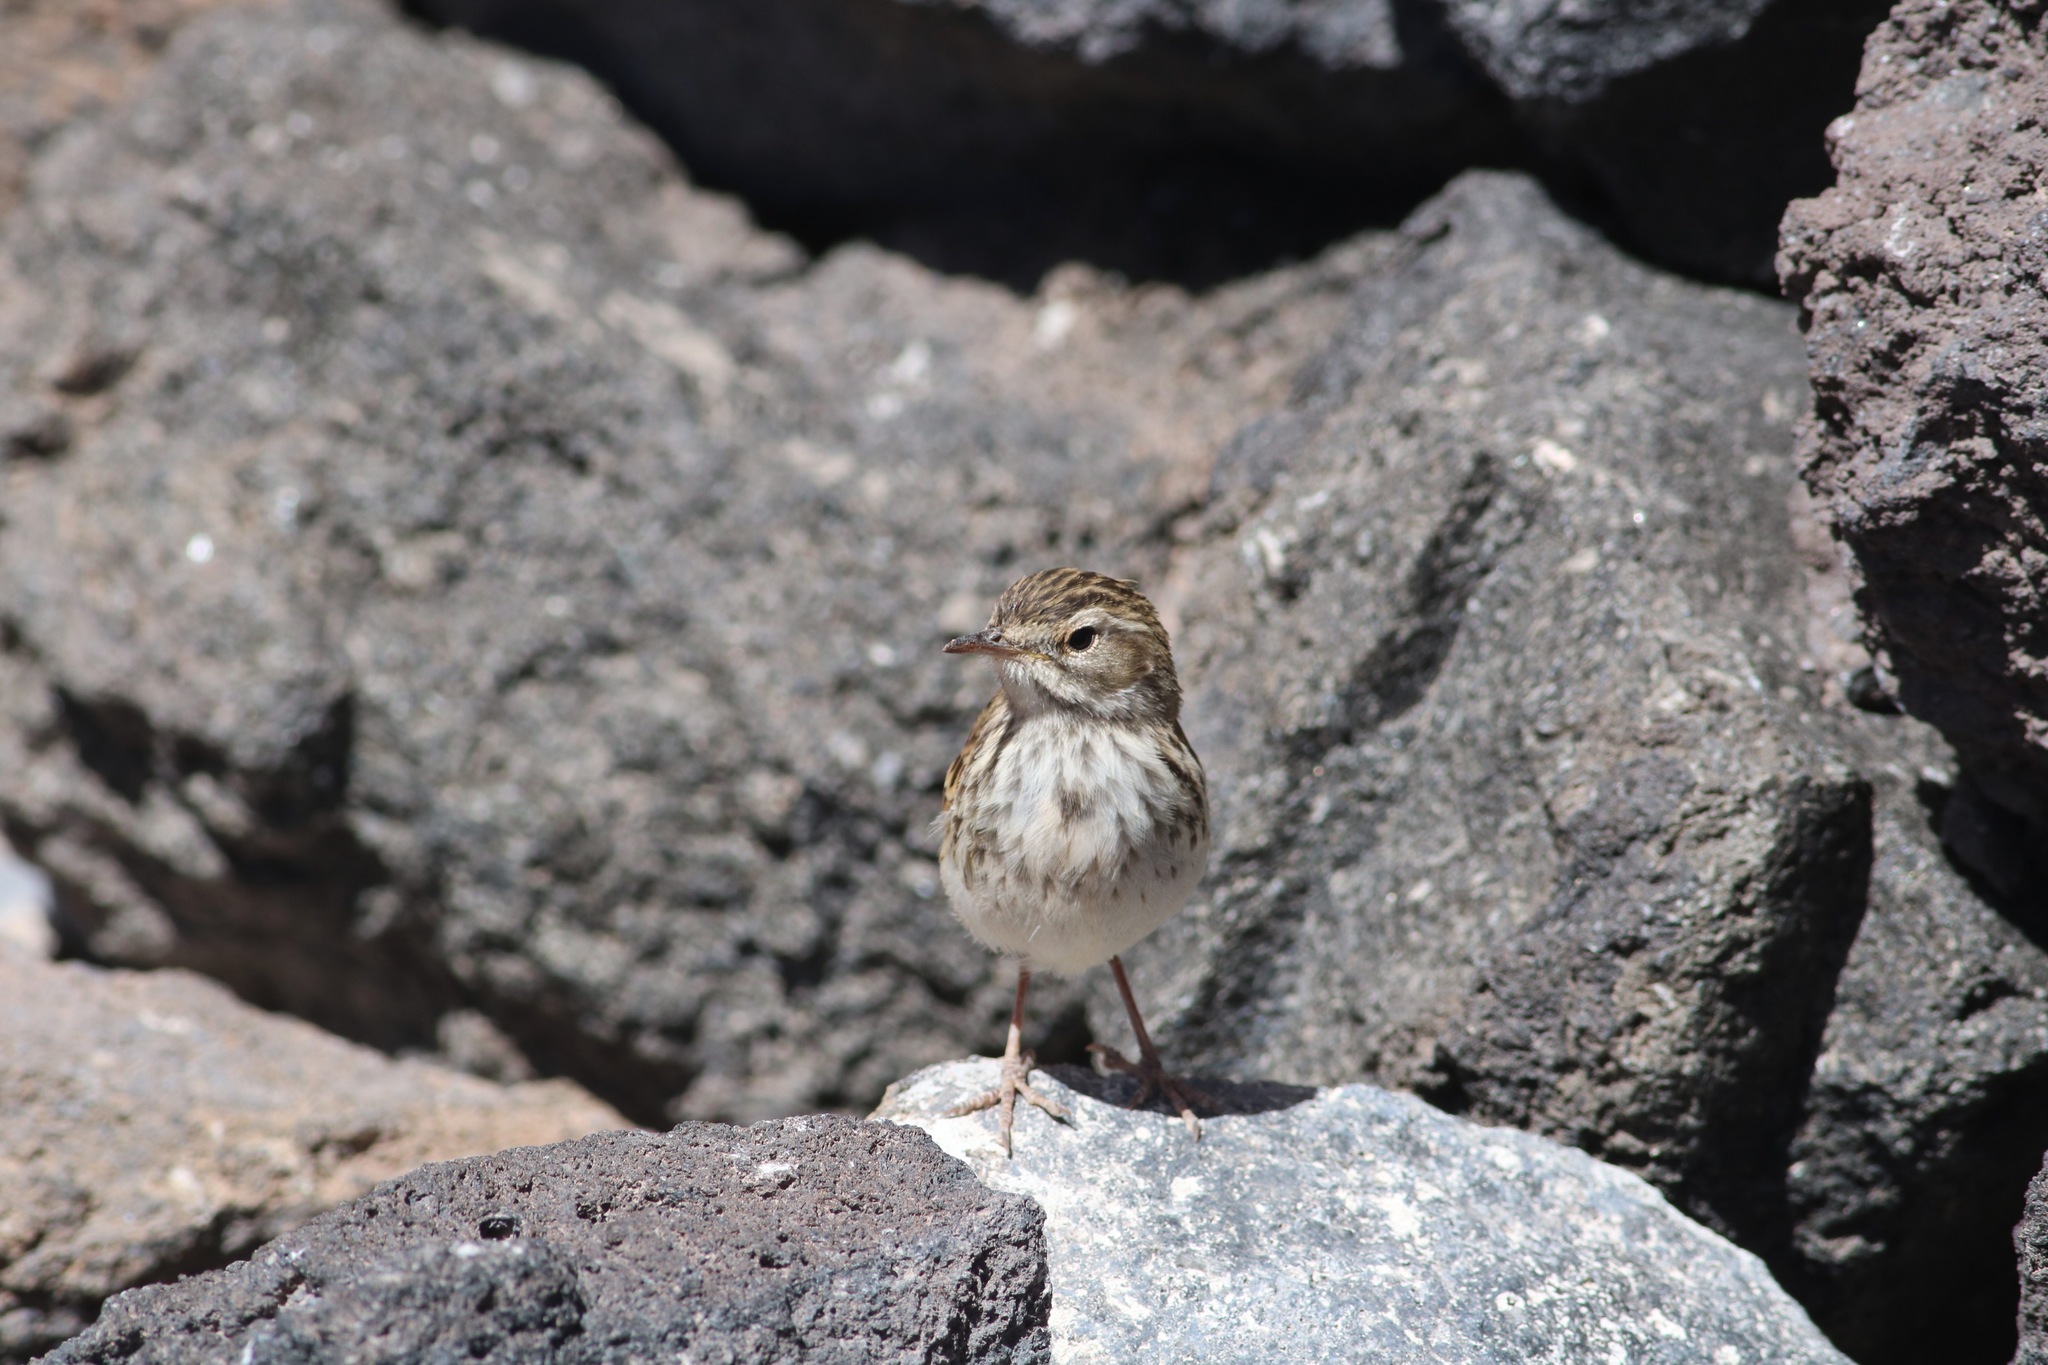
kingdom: Animalia
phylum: Chordata
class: Aves
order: Passeriformes
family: Motacillidae
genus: Anthus
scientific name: Anthus berthelotii
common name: Berthelot's pipit
